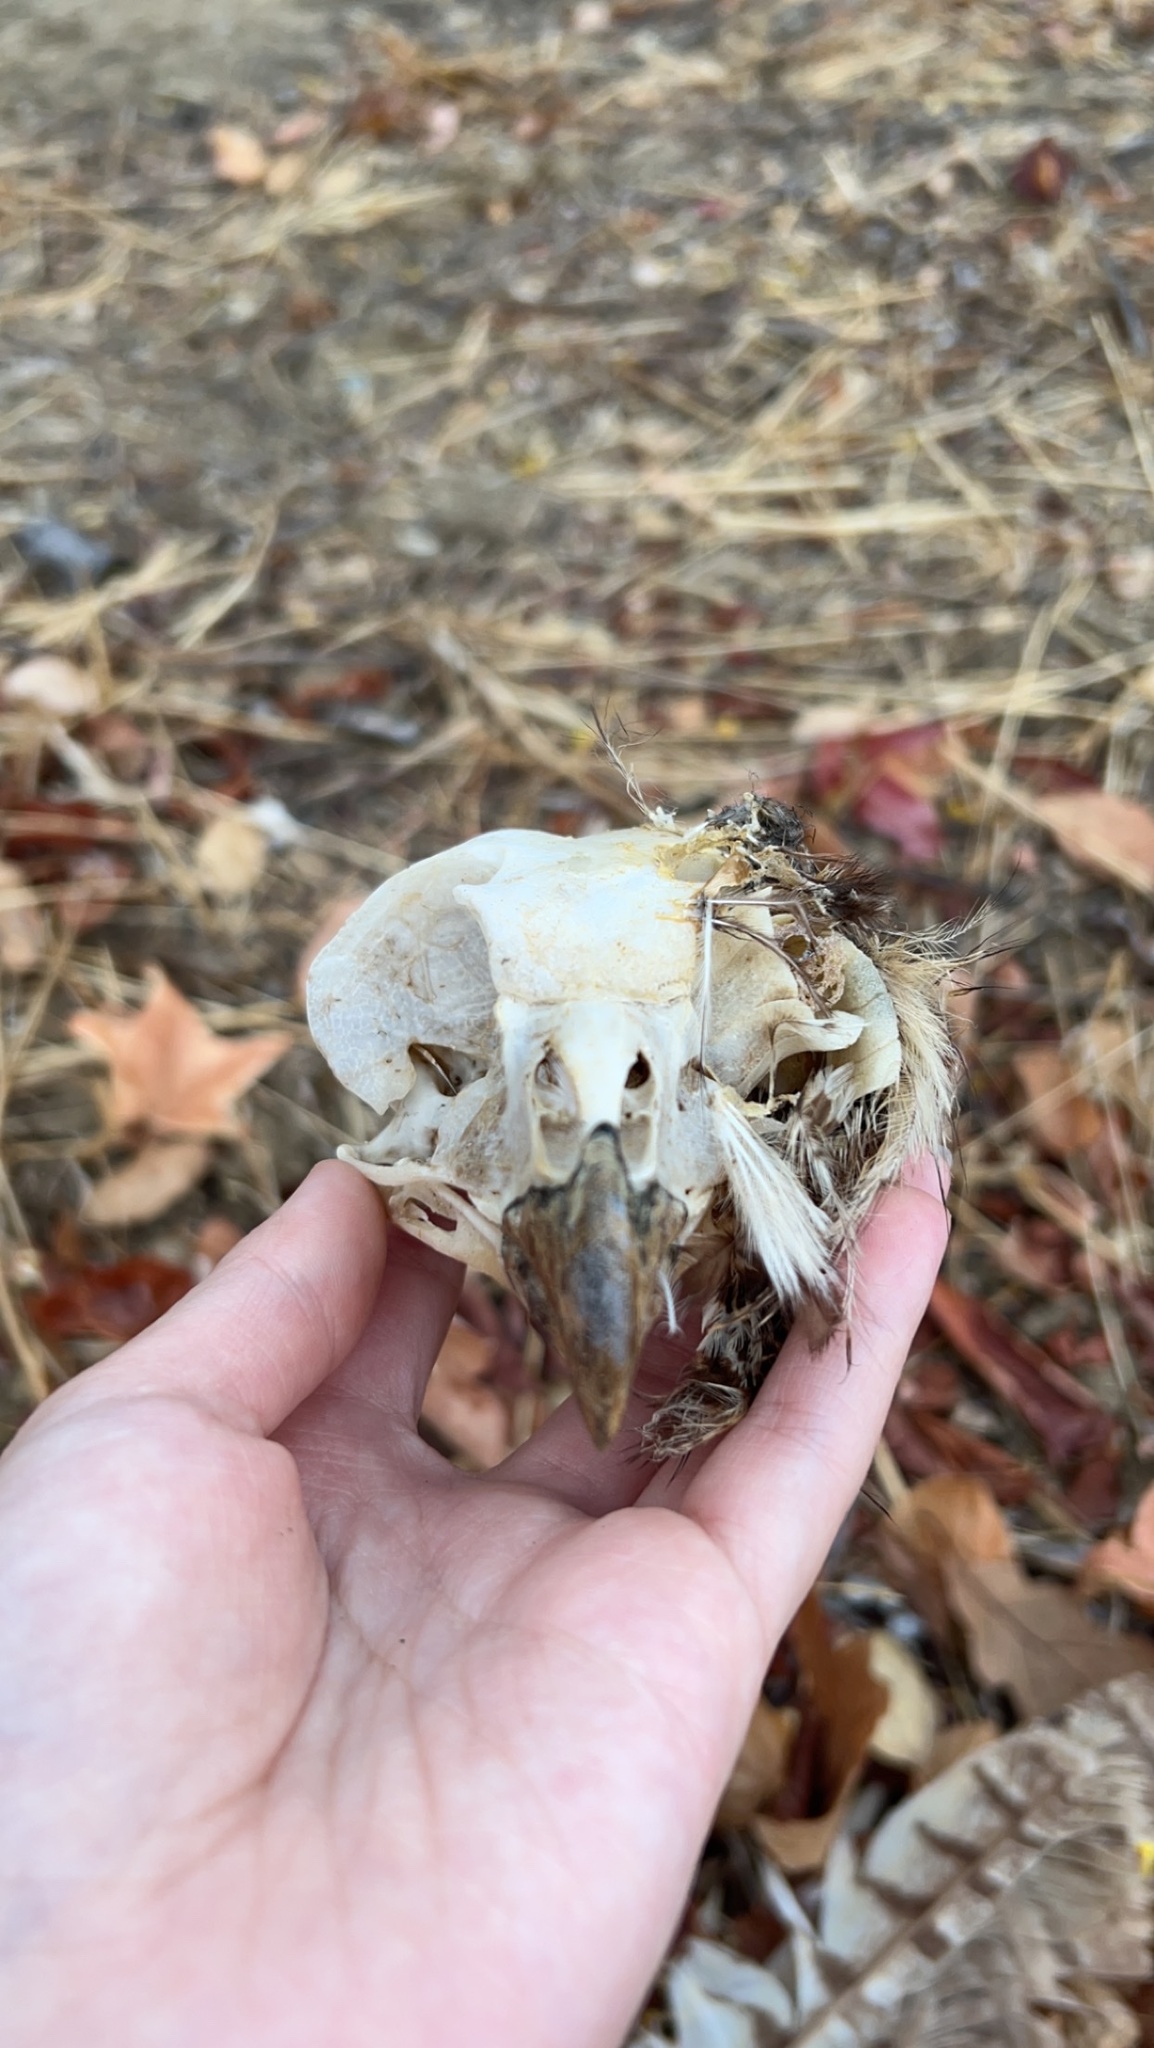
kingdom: Animalia
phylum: Chordata
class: Aves
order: Strigiformes
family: Strigidae
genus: Bubo
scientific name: Bubo virginianus
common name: Great horned owl
